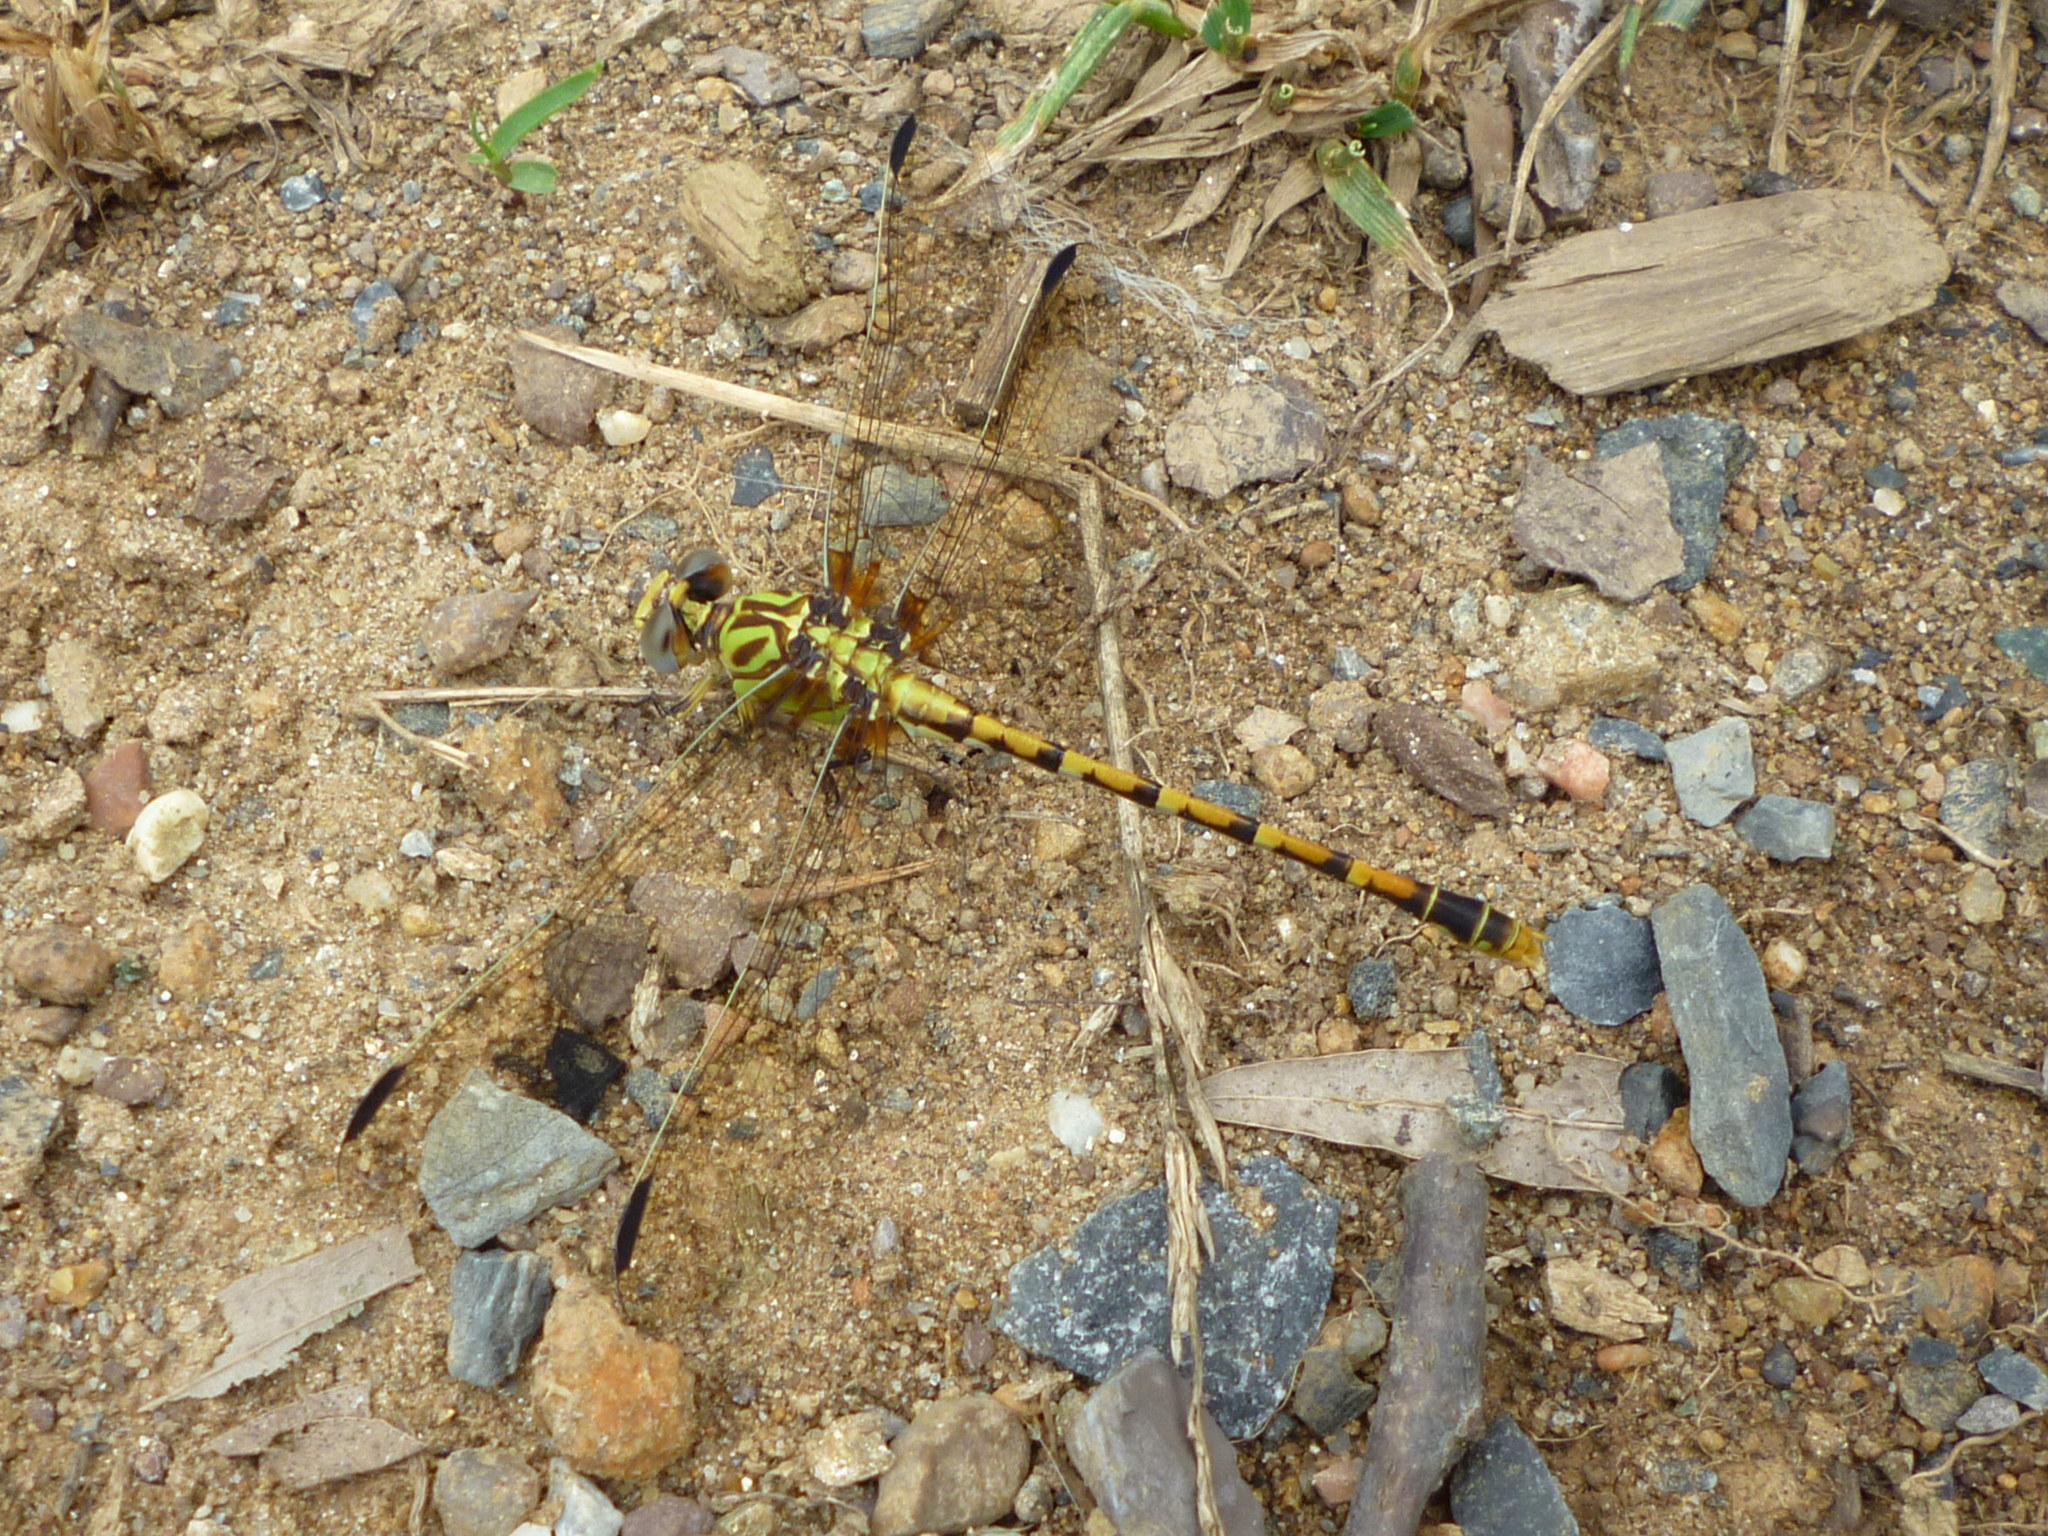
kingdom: Animalia
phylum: Arthropoda
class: Insecta
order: Odonata
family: Gomphidae
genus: Erpetogomphus
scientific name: Erpetogomphus designatus
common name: Eastern ringtail
